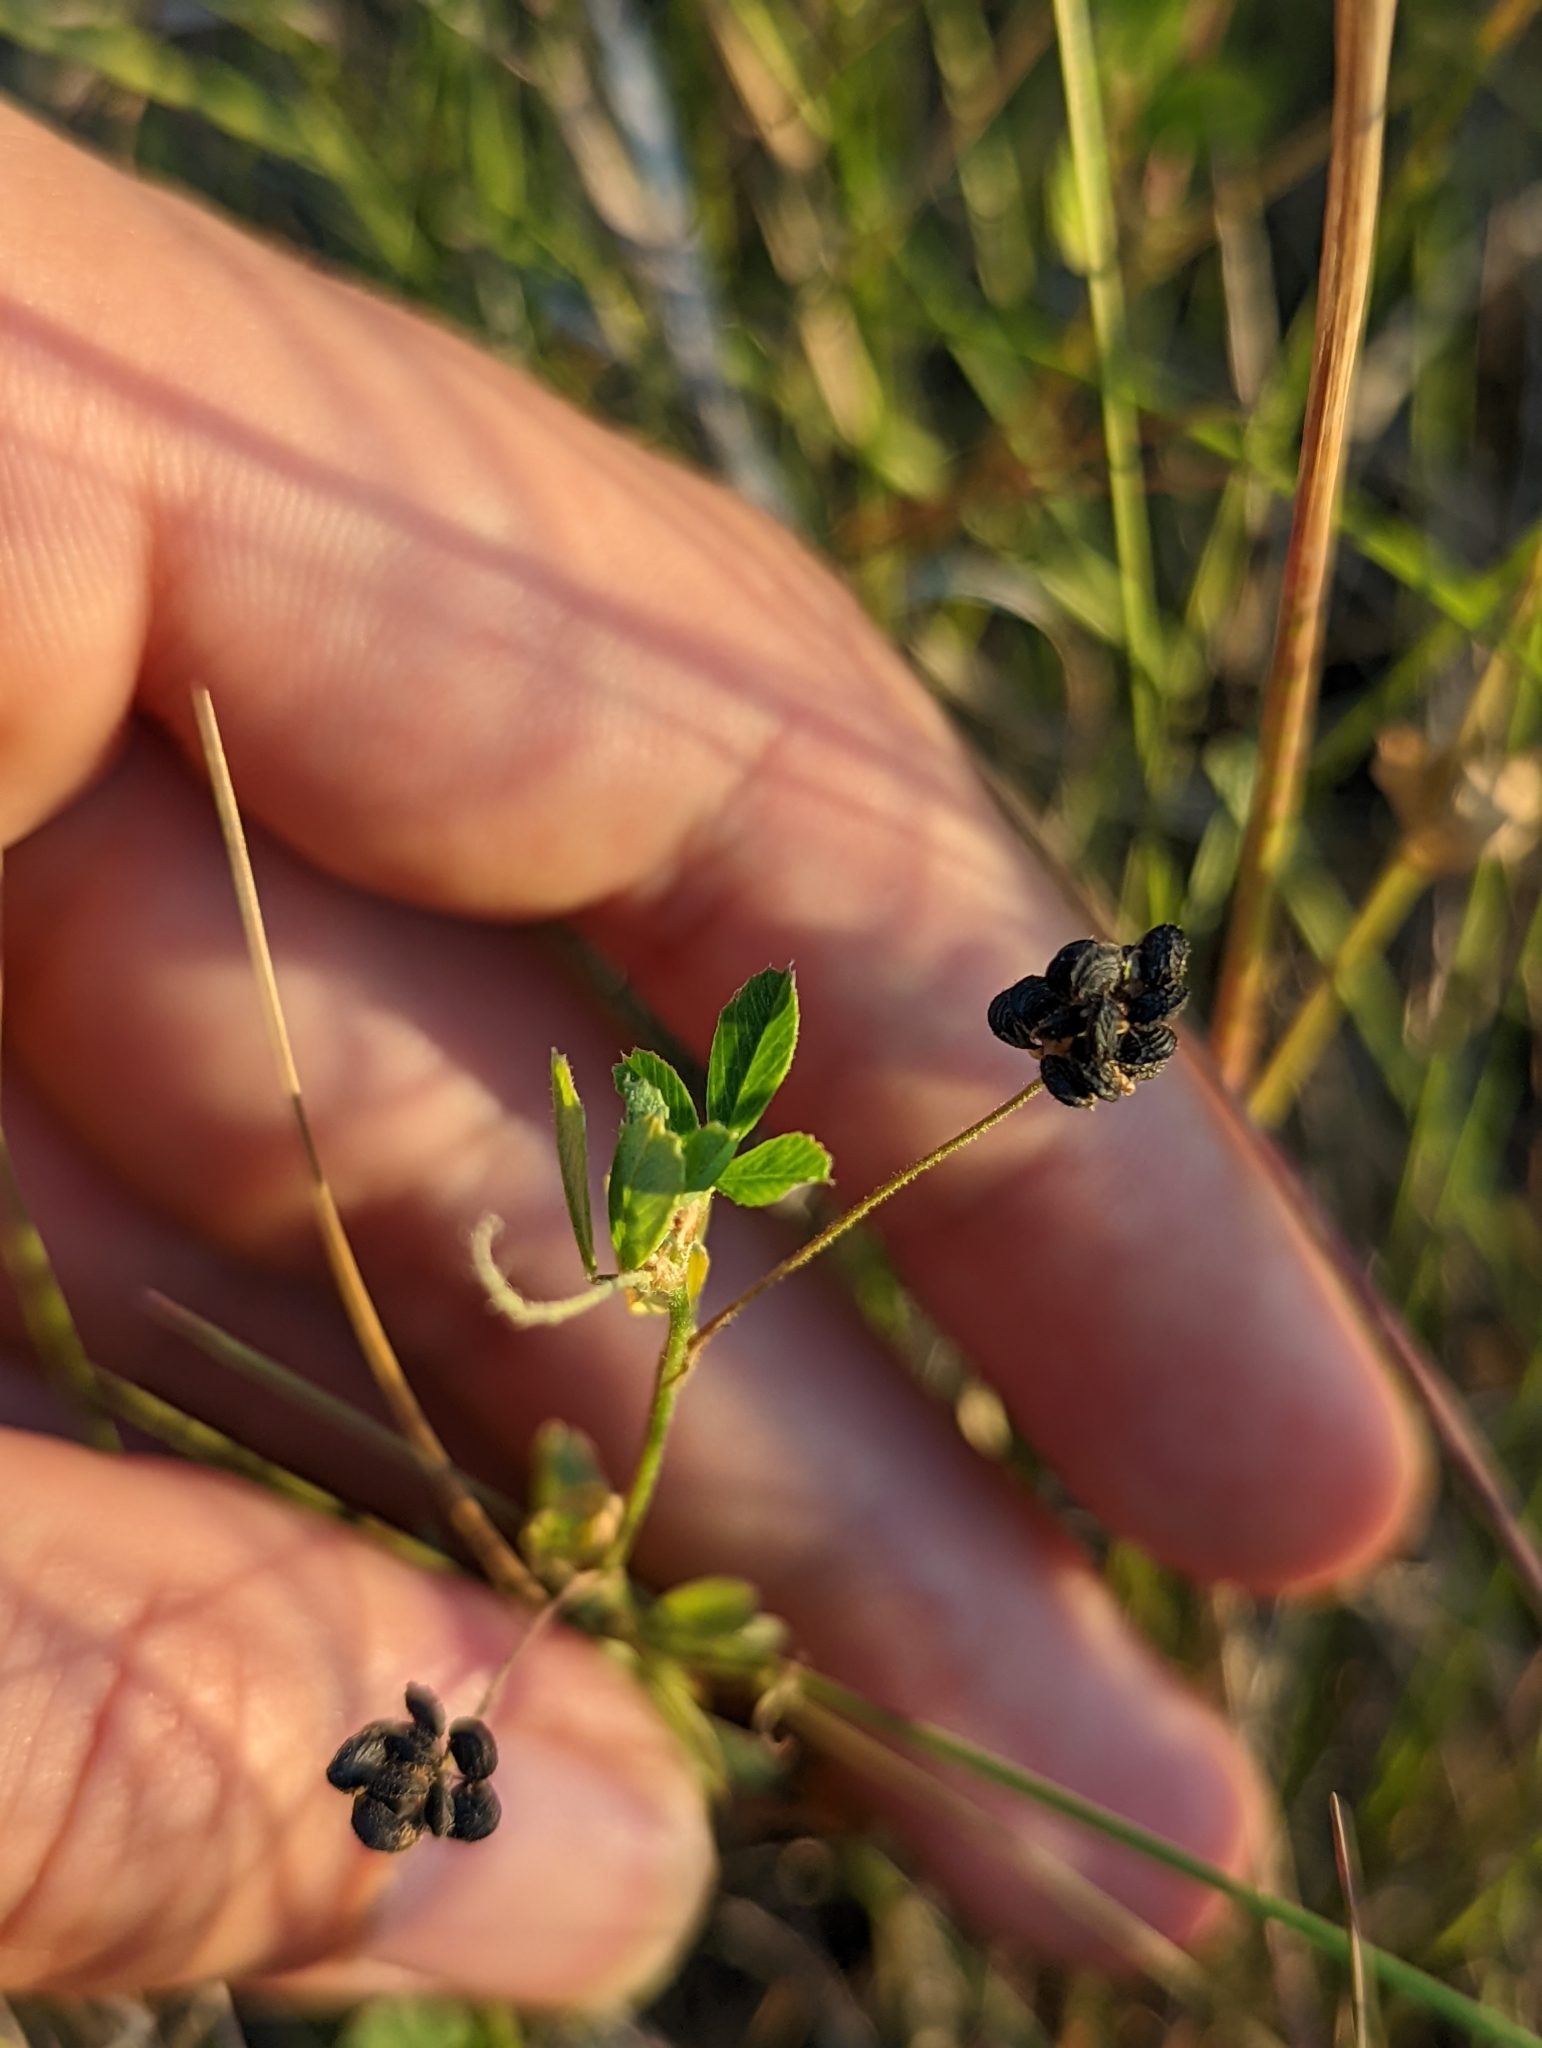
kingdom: Plantae
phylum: Tracheophyta
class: Magnoliopsida
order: Fabales
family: Fabaceae
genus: Medicago
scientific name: Medicago lupulina
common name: Black medick
